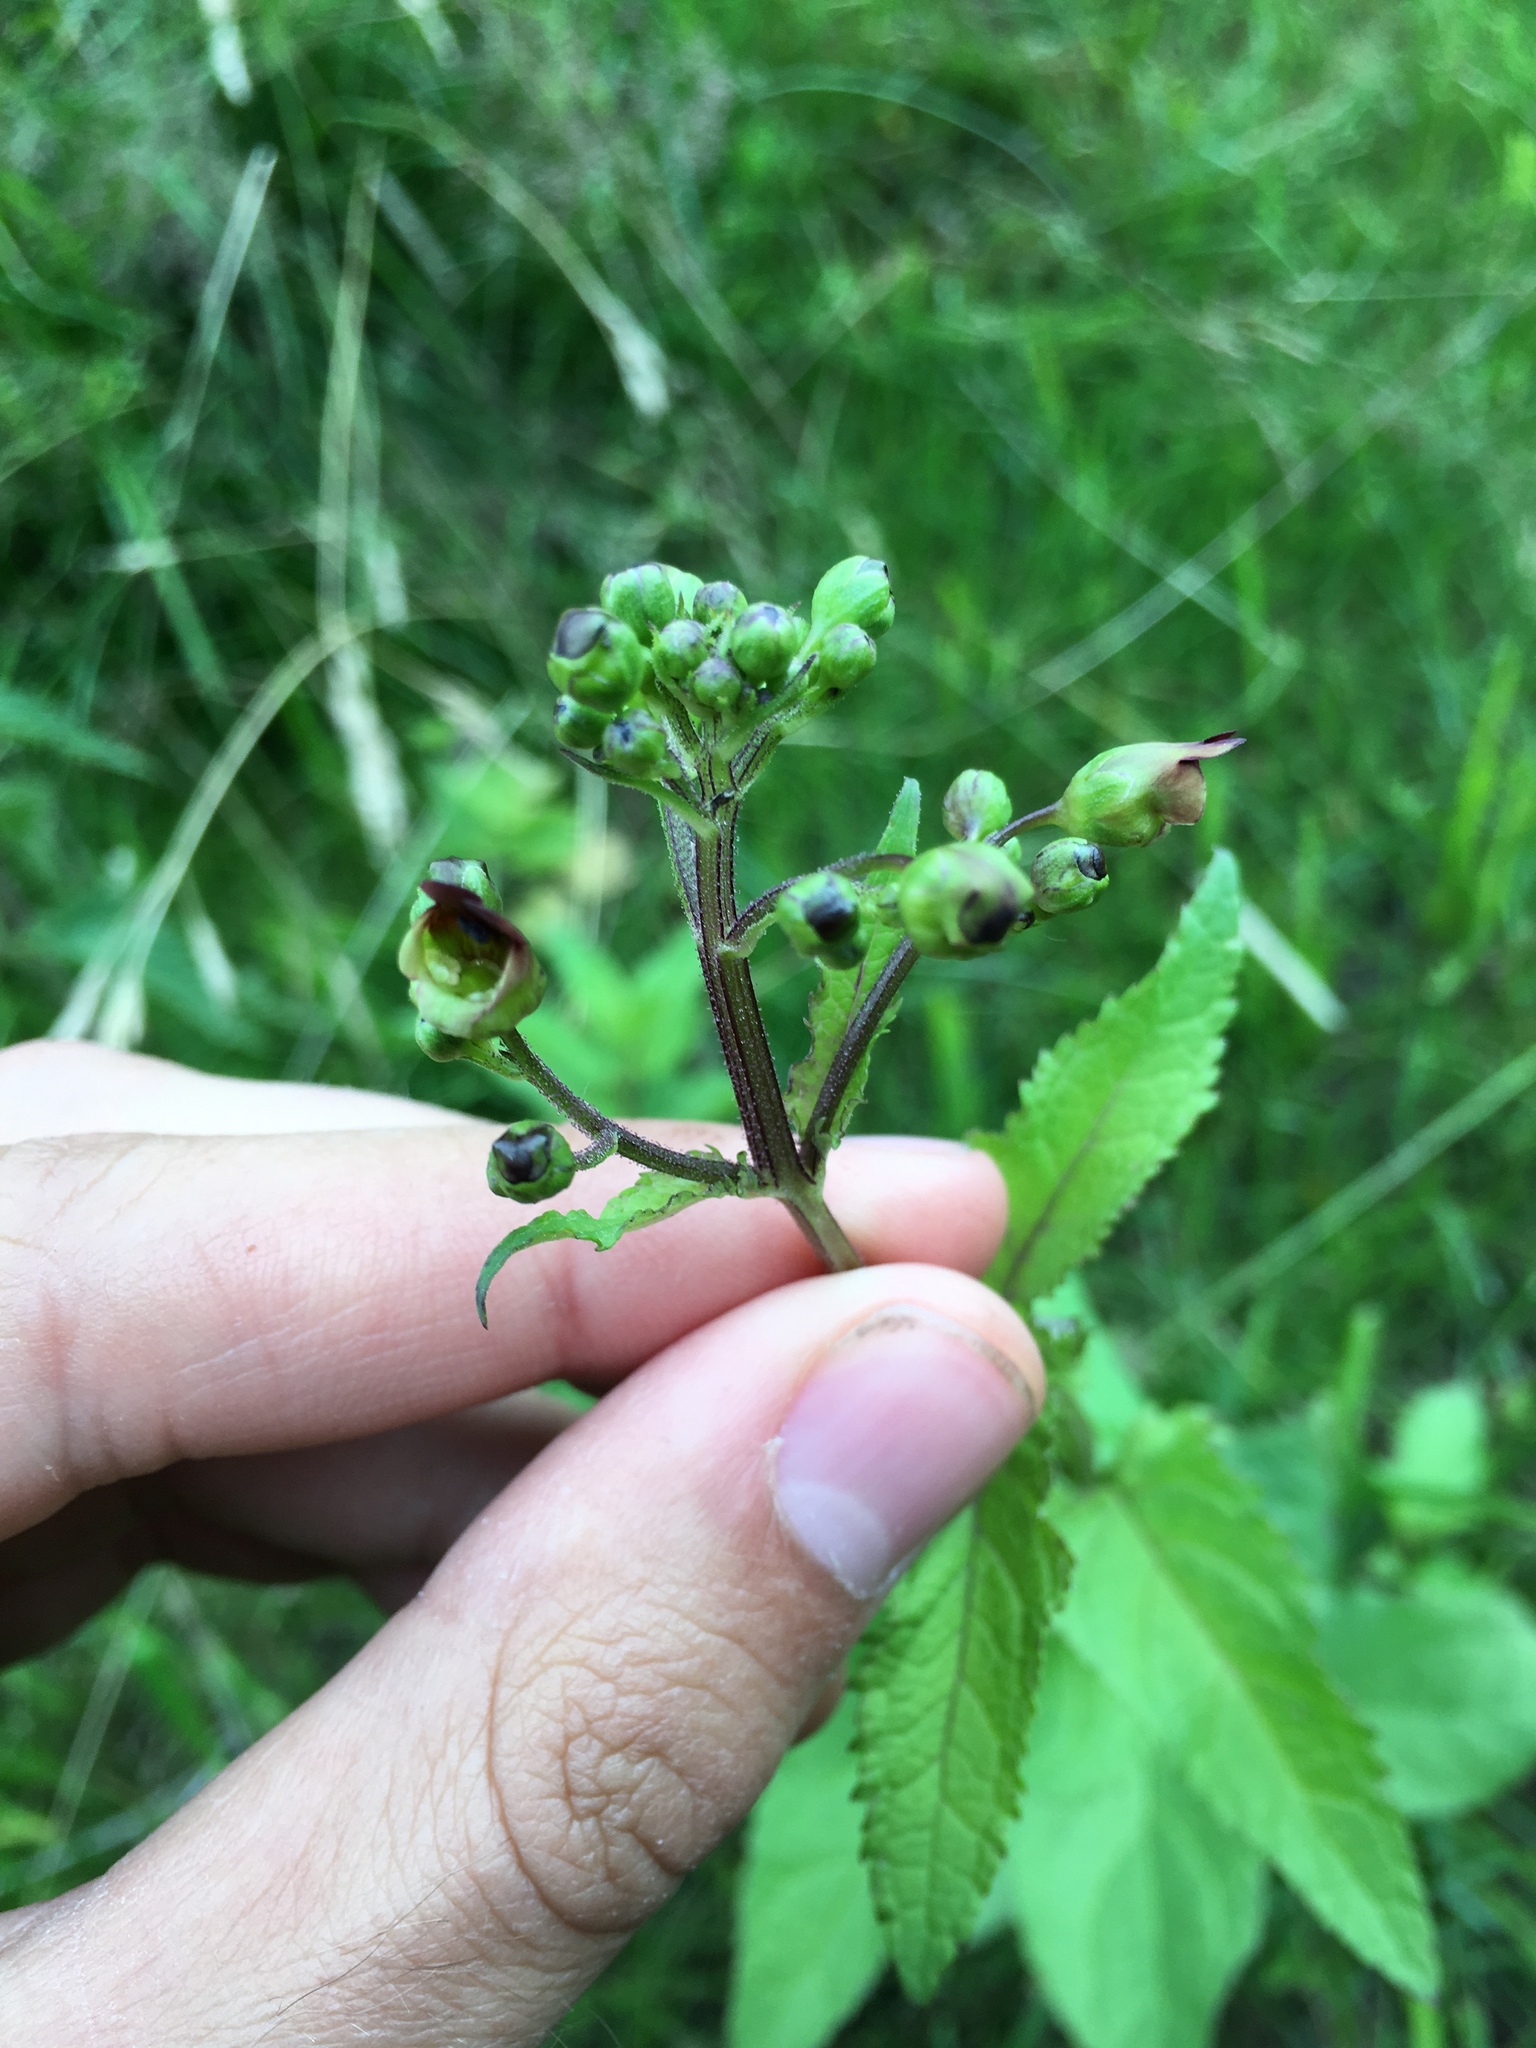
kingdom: Plantae
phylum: Tracheophyta
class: Magnoliopsida
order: Lamiales
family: Scrophulariaceae
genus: Scrophularia
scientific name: Scrophularia nodosa
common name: Common figwort
